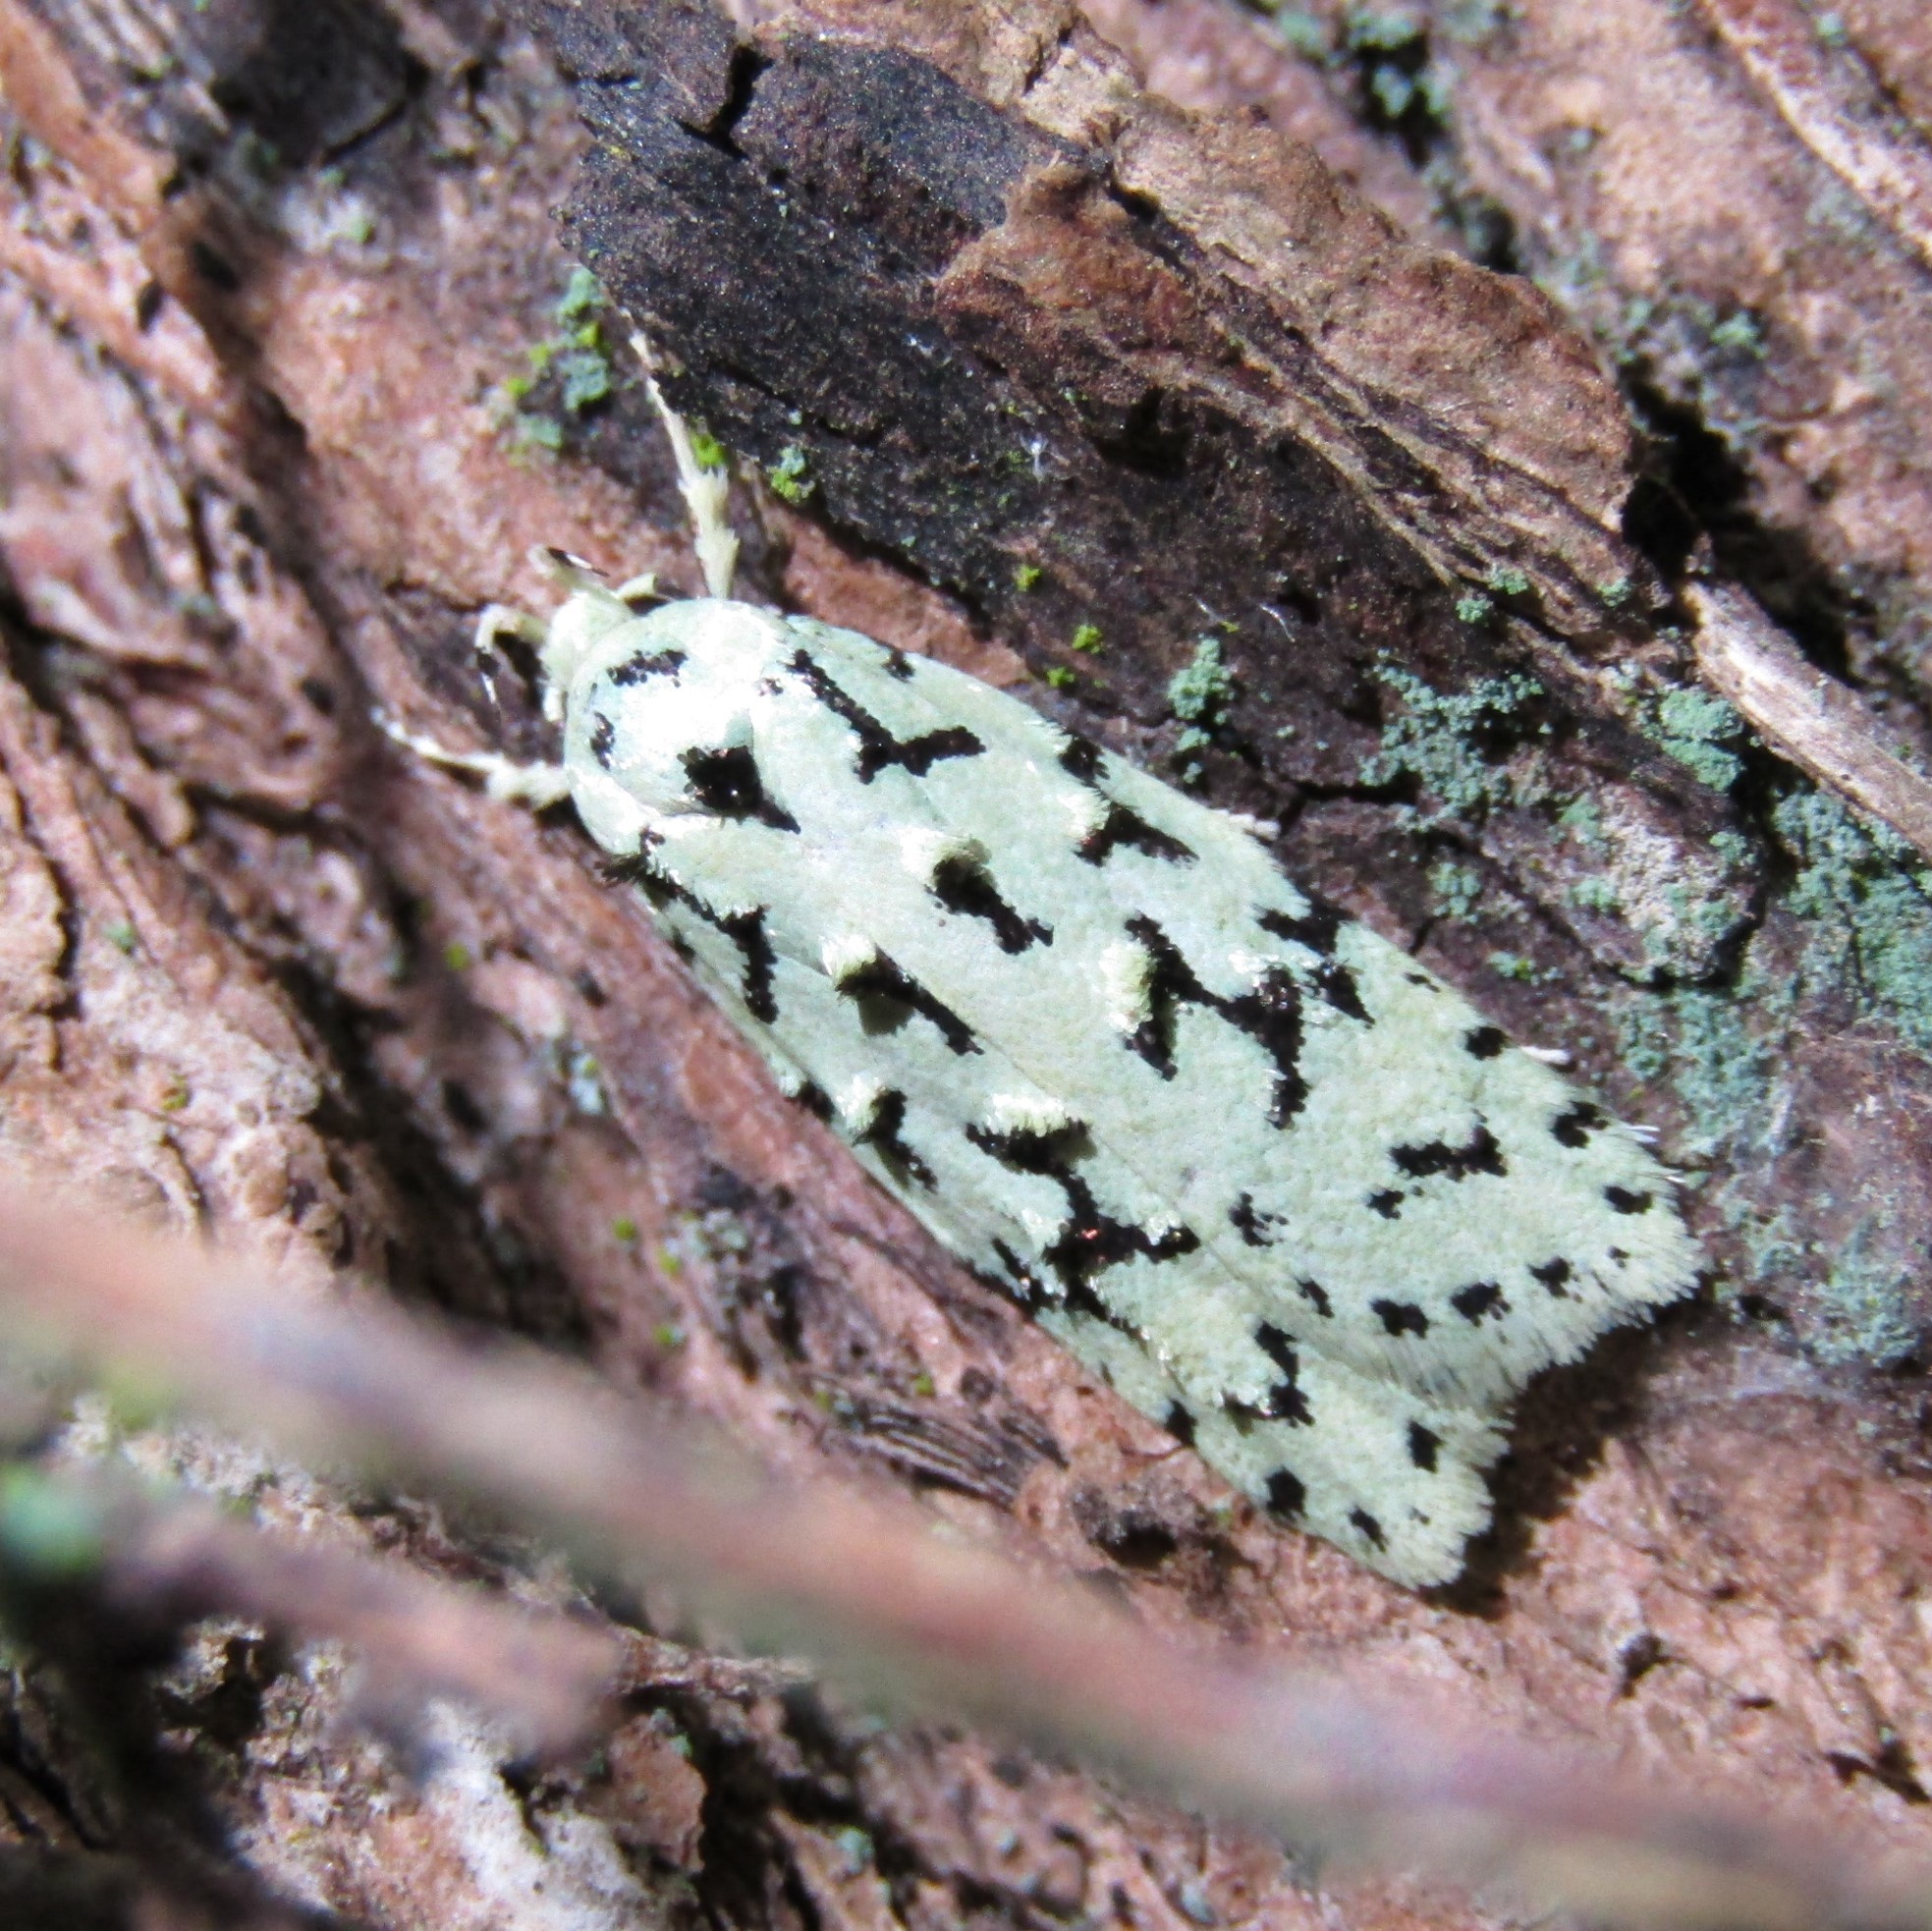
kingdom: Animalia
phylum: Arthropoda
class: Insecta
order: Lepidoptera
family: Oecophoridae
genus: Izatha
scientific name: Izatha huttoni
